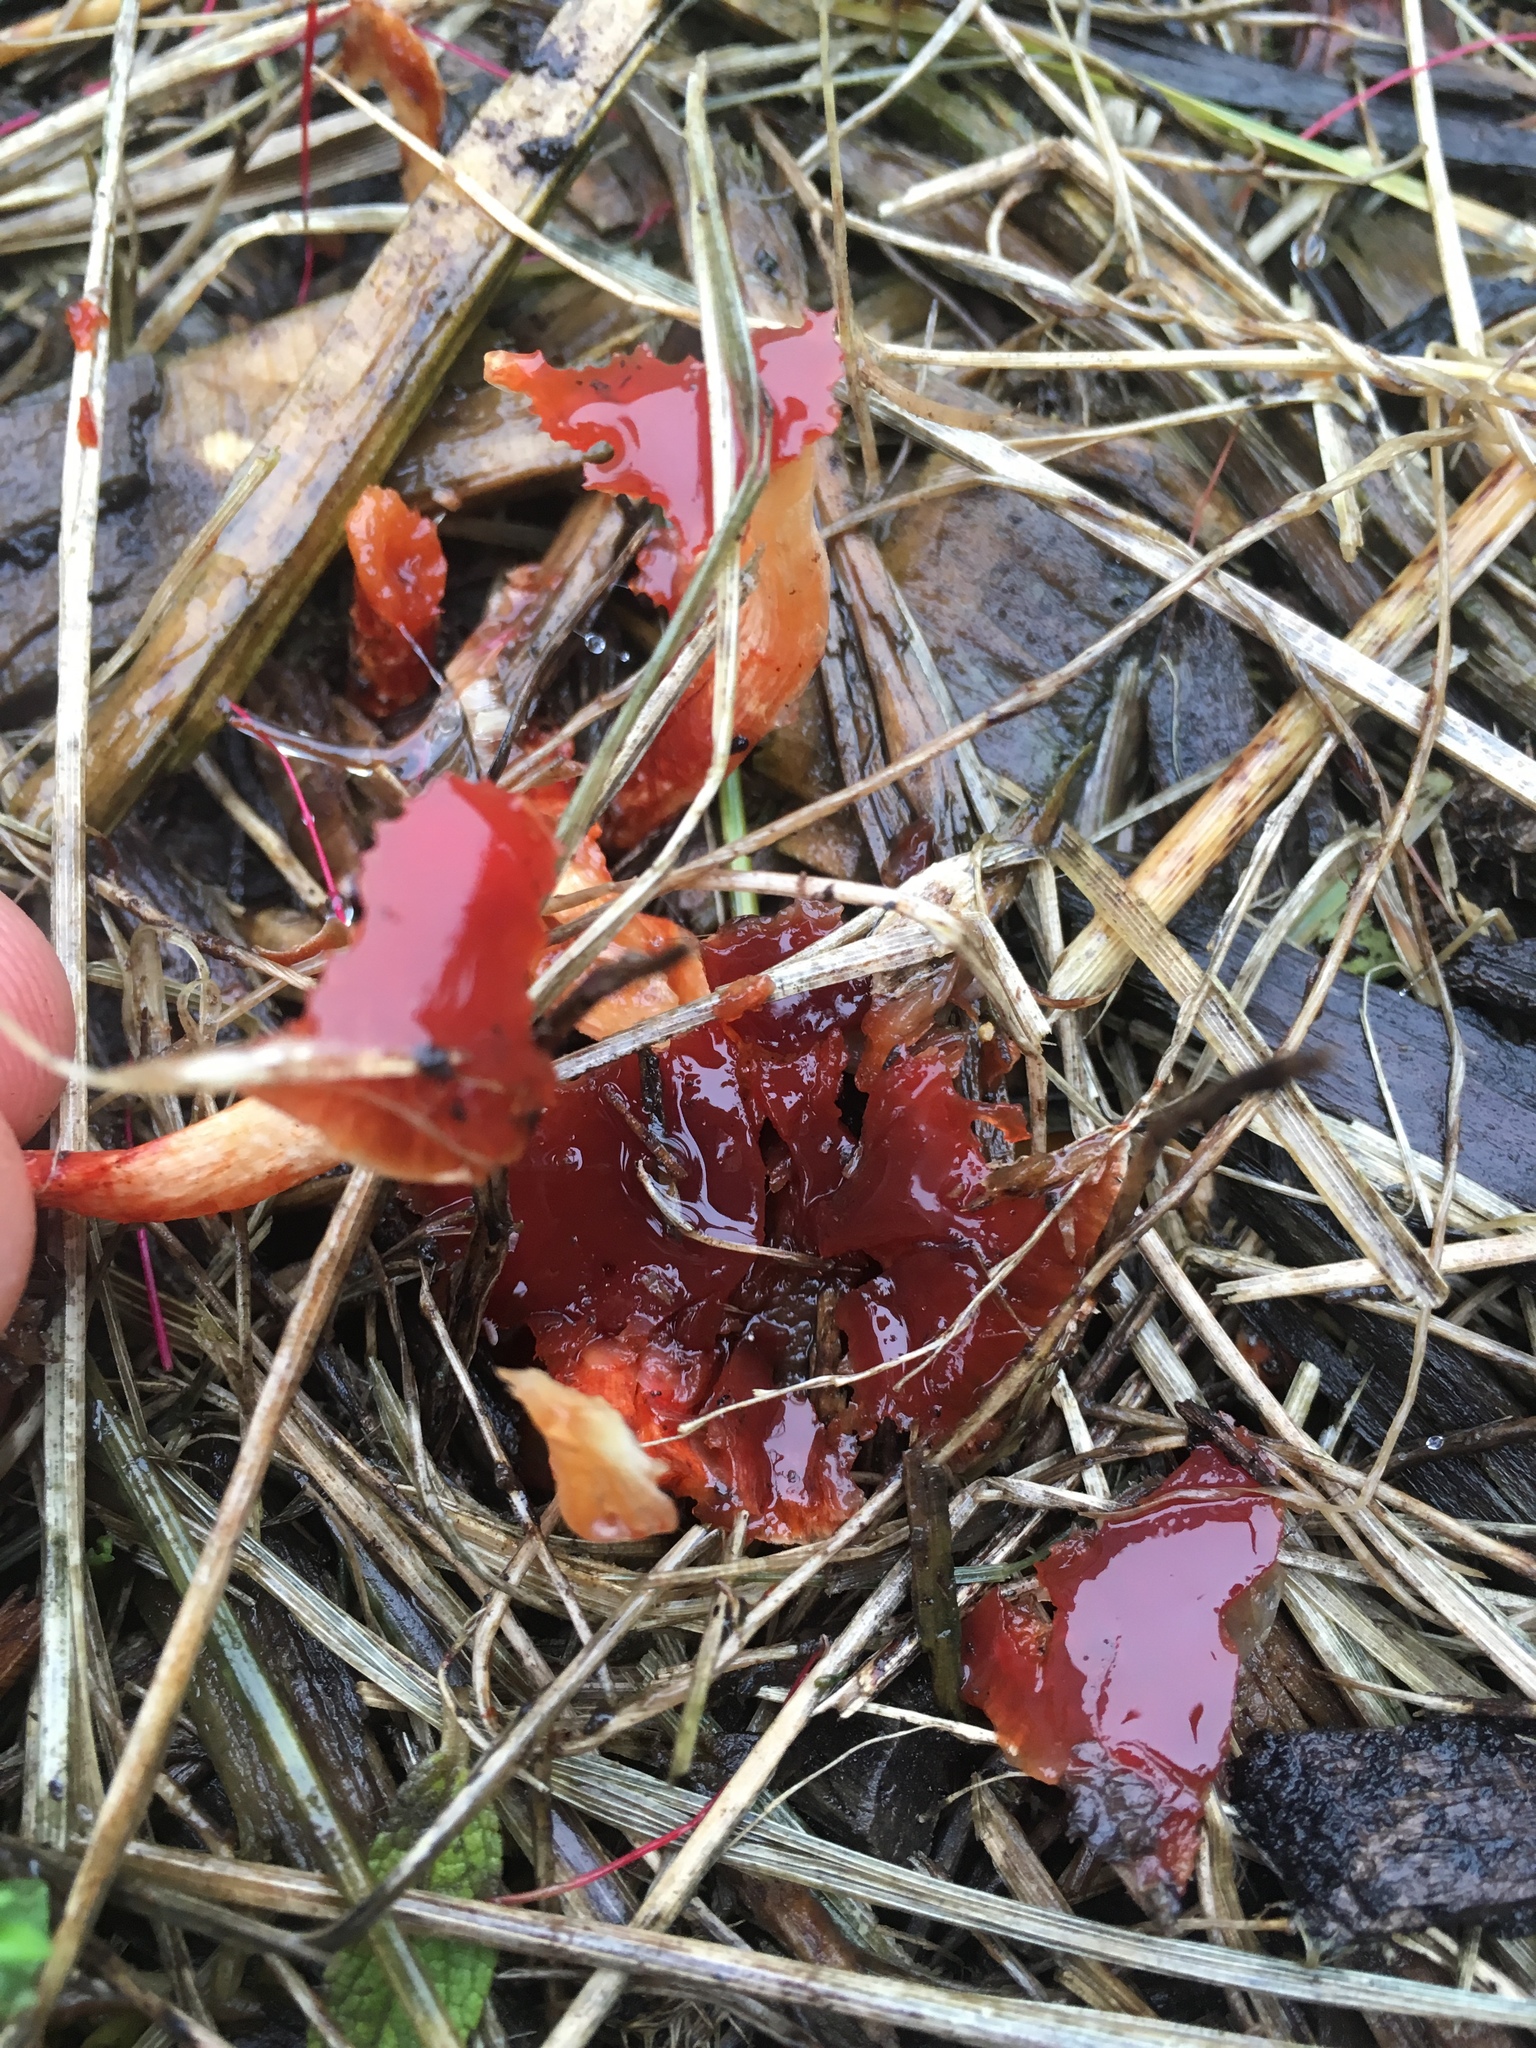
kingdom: Fungi
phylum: Basidiomycota
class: Agaricomycetes
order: Agaricales
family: Strophariaceae
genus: Leratiomyces
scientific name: Leratiomyces ceres
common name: Redlead roundhead
